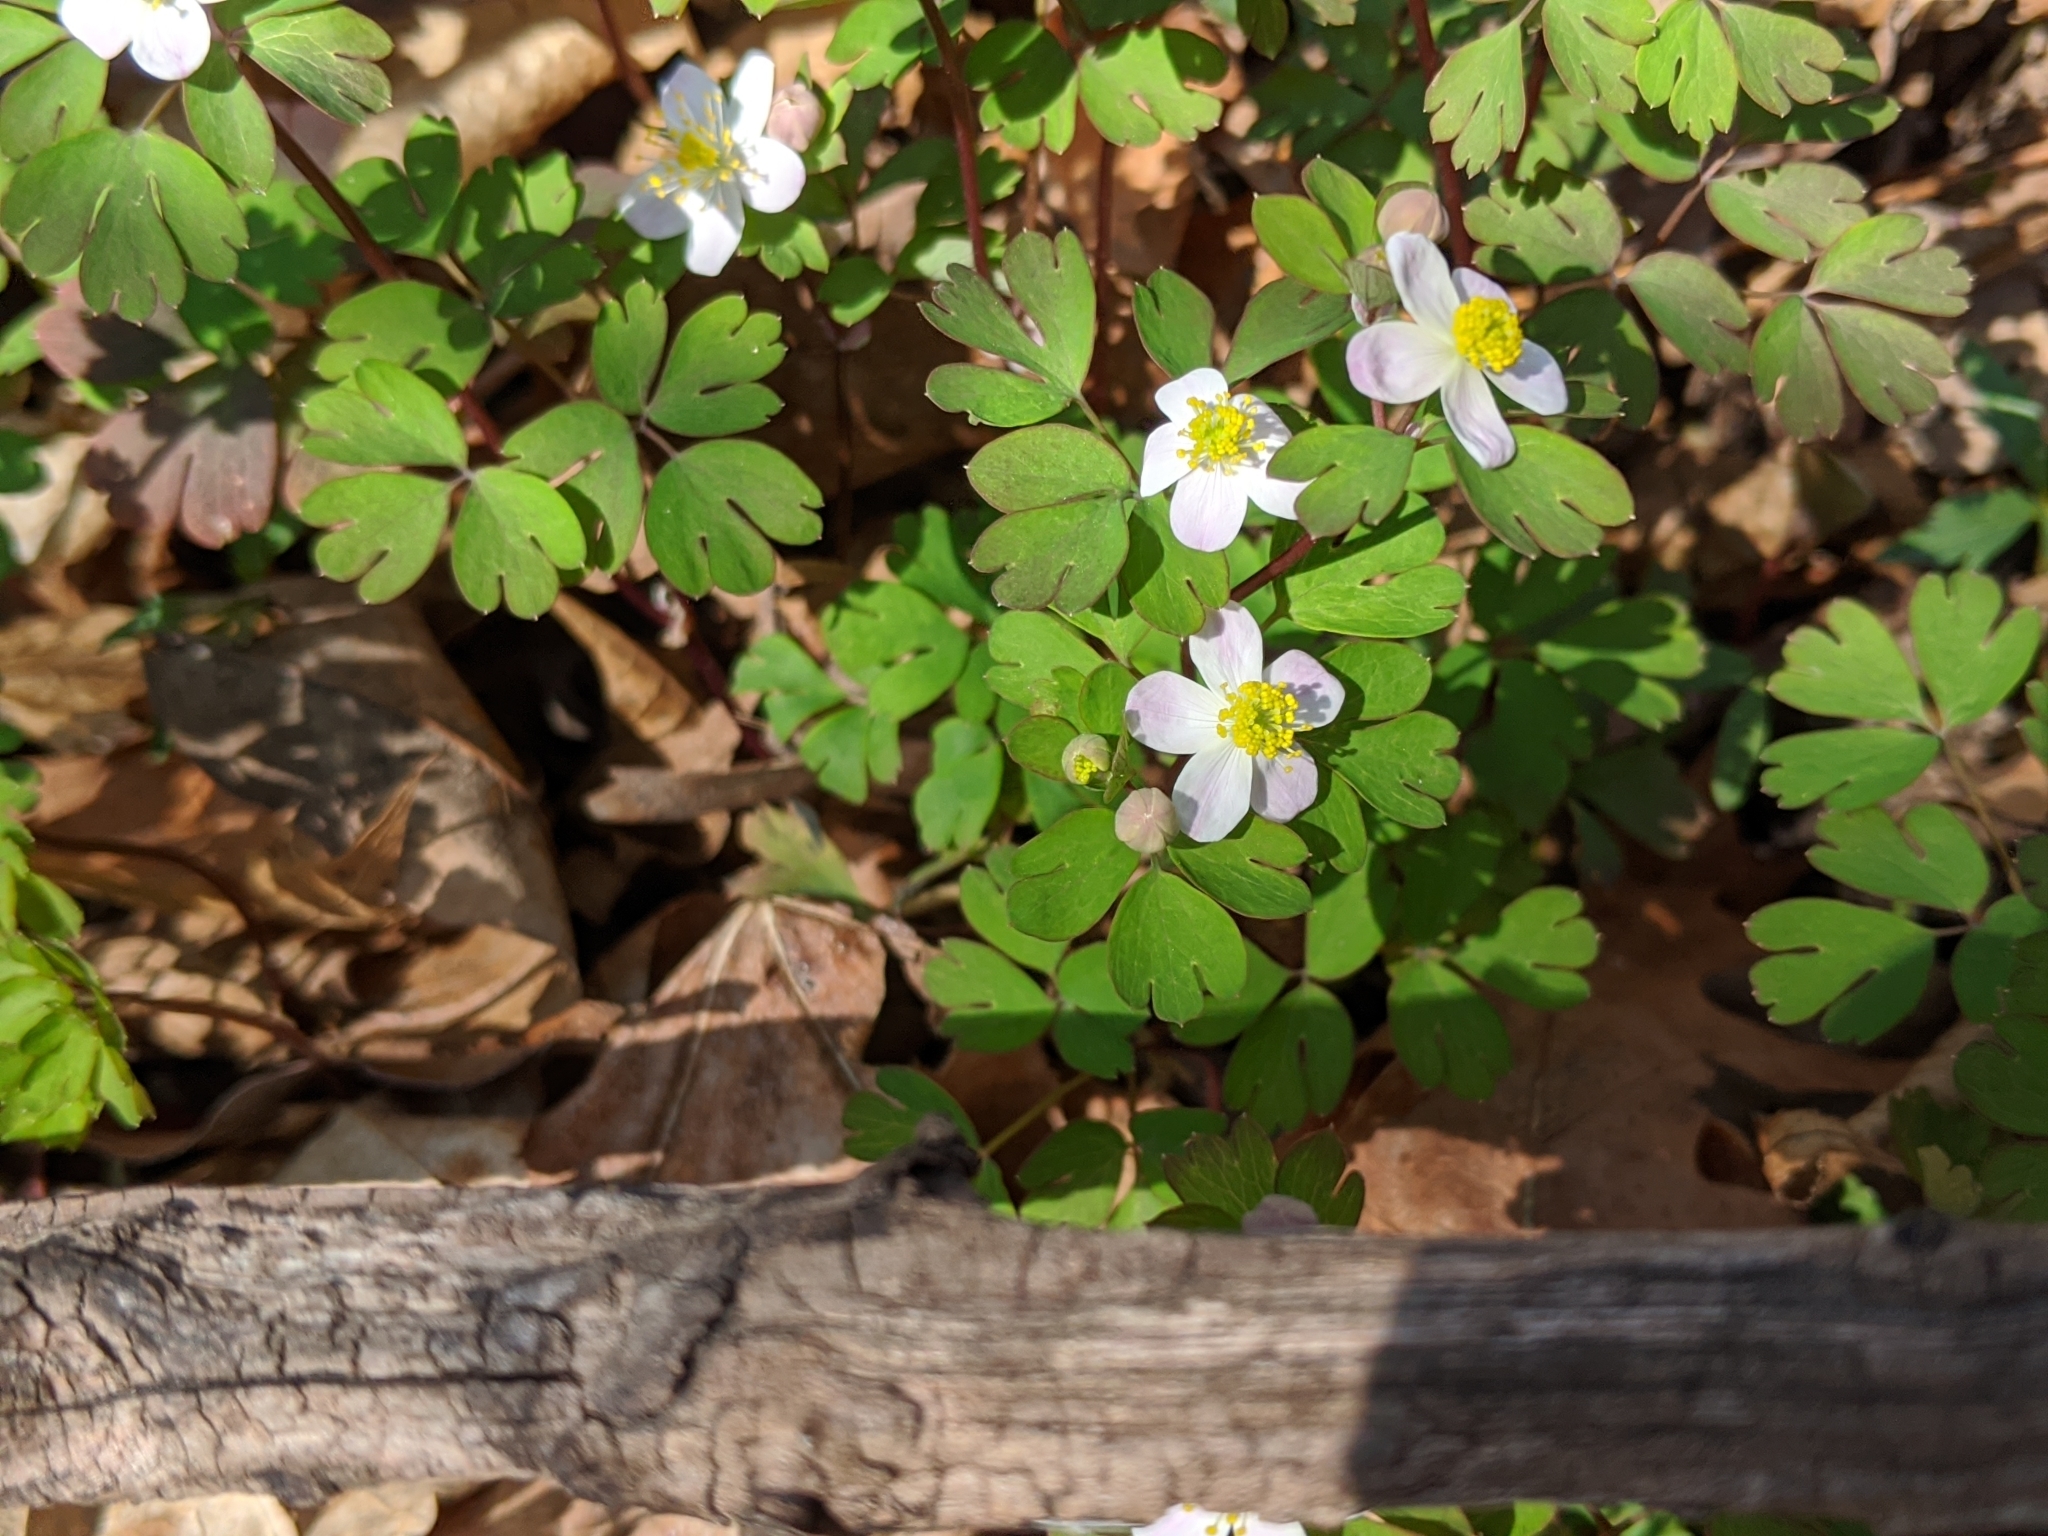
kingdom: Plantae
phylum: Tracheophyta
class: Magnoliopsida
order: Ranunculales
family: Ranunculaceae
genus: Enemion
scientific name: Enemion biternatum
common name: Eastern false rue-anemone
